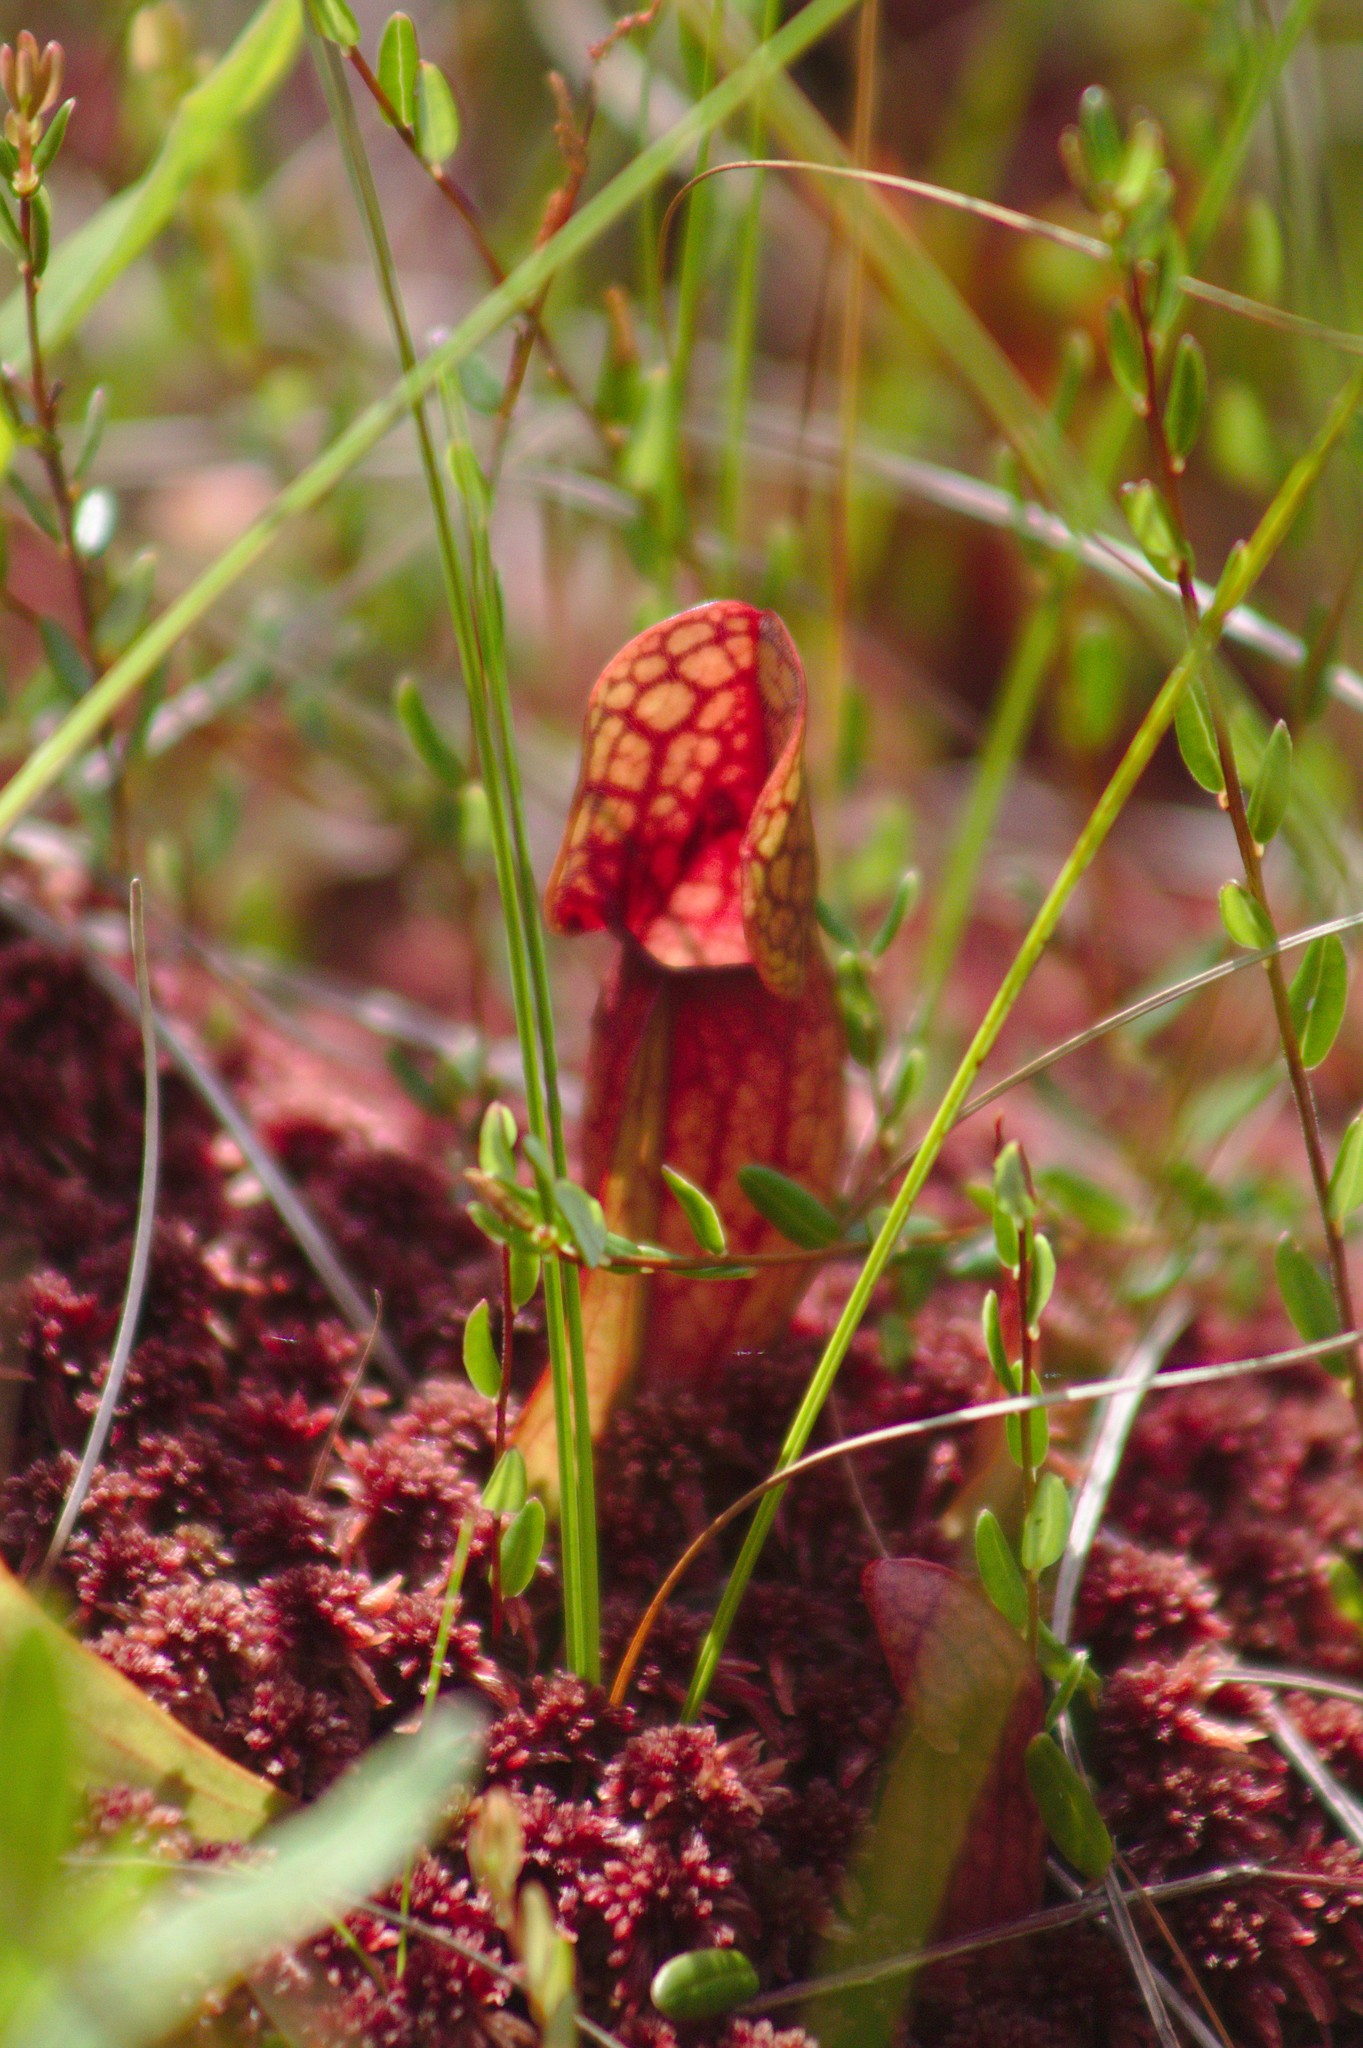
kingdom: Plantae
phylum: Tracheophyta
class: Magnoliopsida
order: Ericales
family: Sarraceniaceae
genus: Sarracenia
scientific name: Sarracenia purpurea
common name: Pitcherplant
